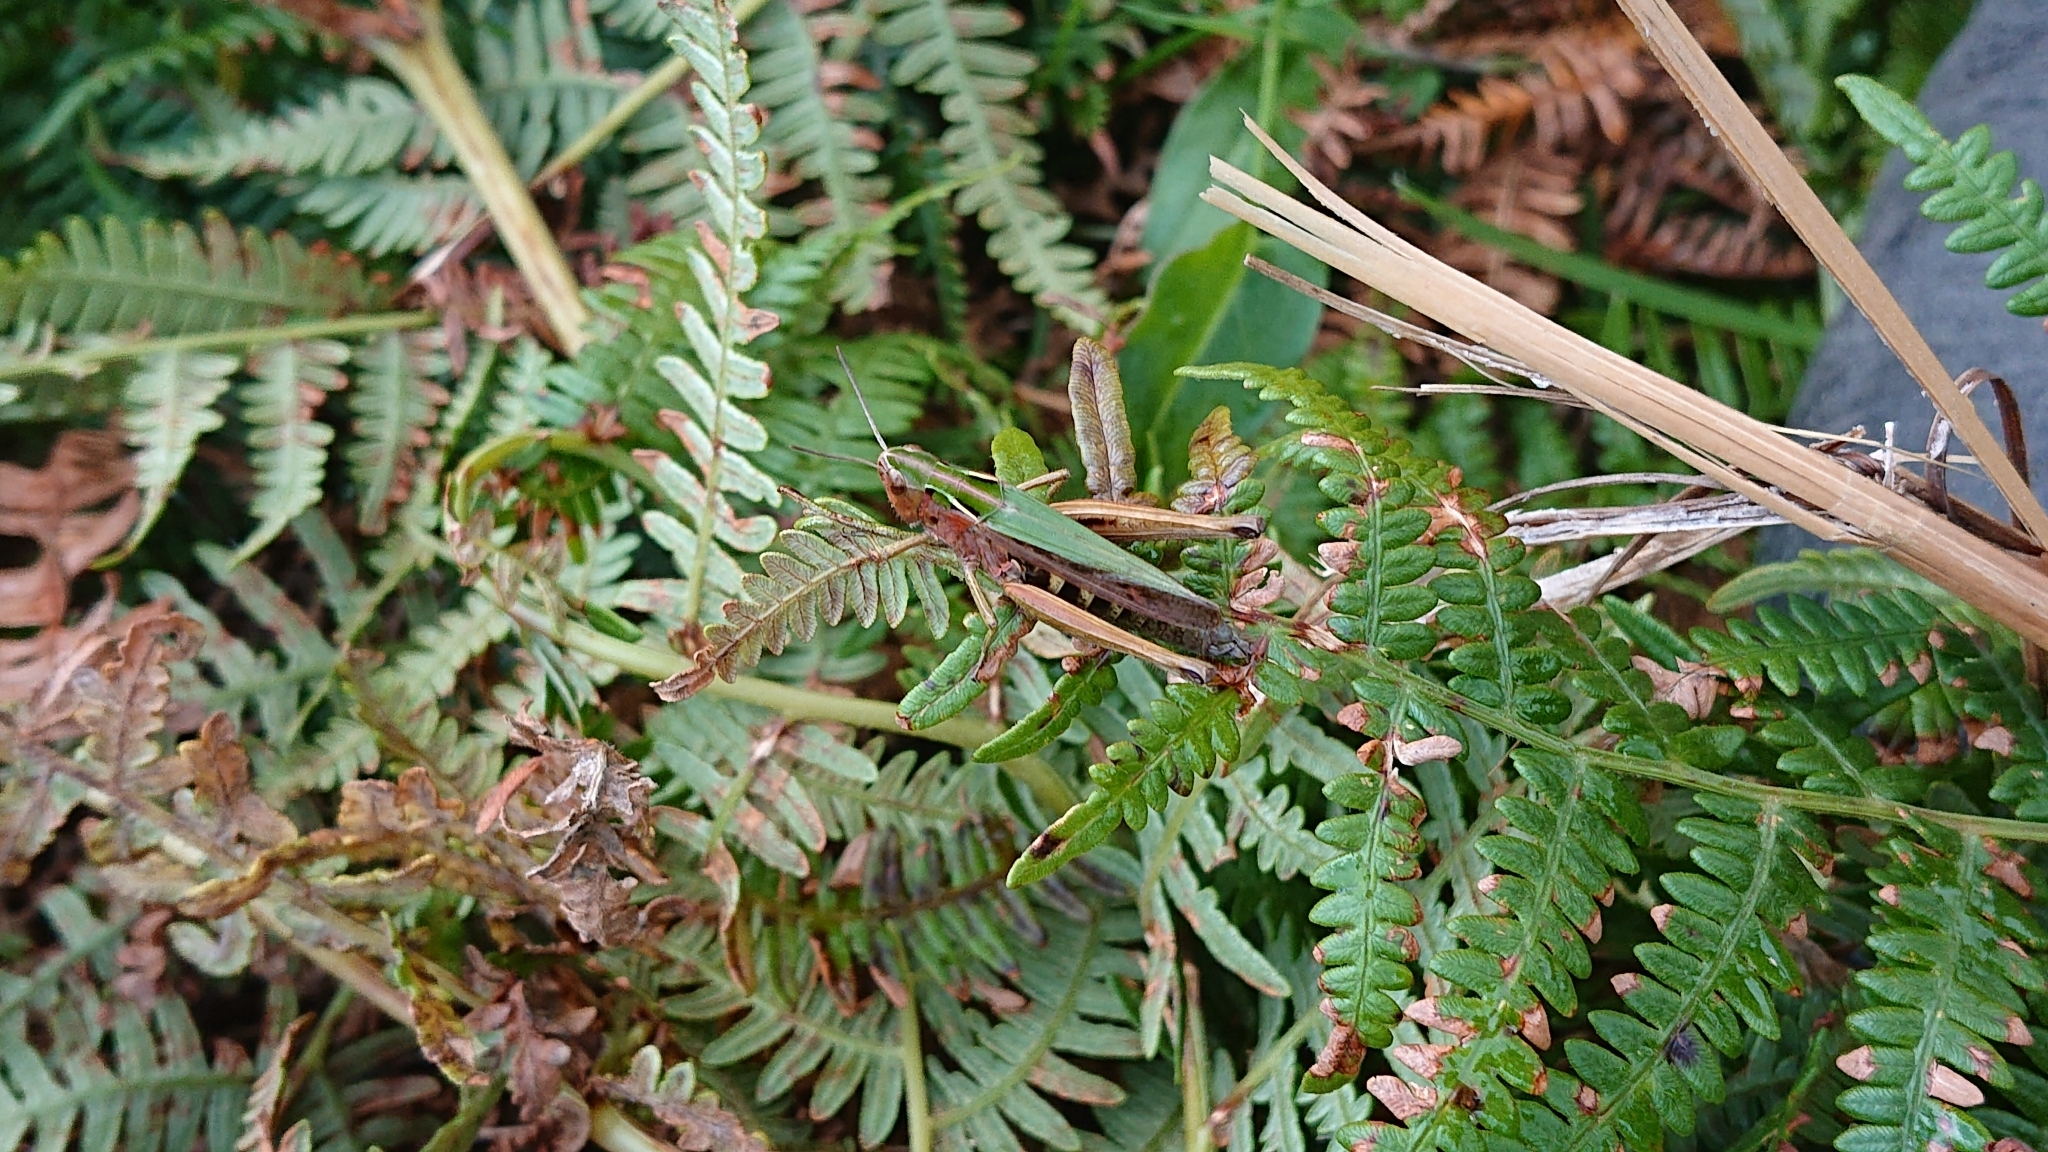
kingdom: Animalia
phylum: Arthropoda
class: Insecta
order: Orthoptera
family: Acrididae
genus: Omocestus
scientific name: Omocestus viridulus
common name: Common green grasshopper
